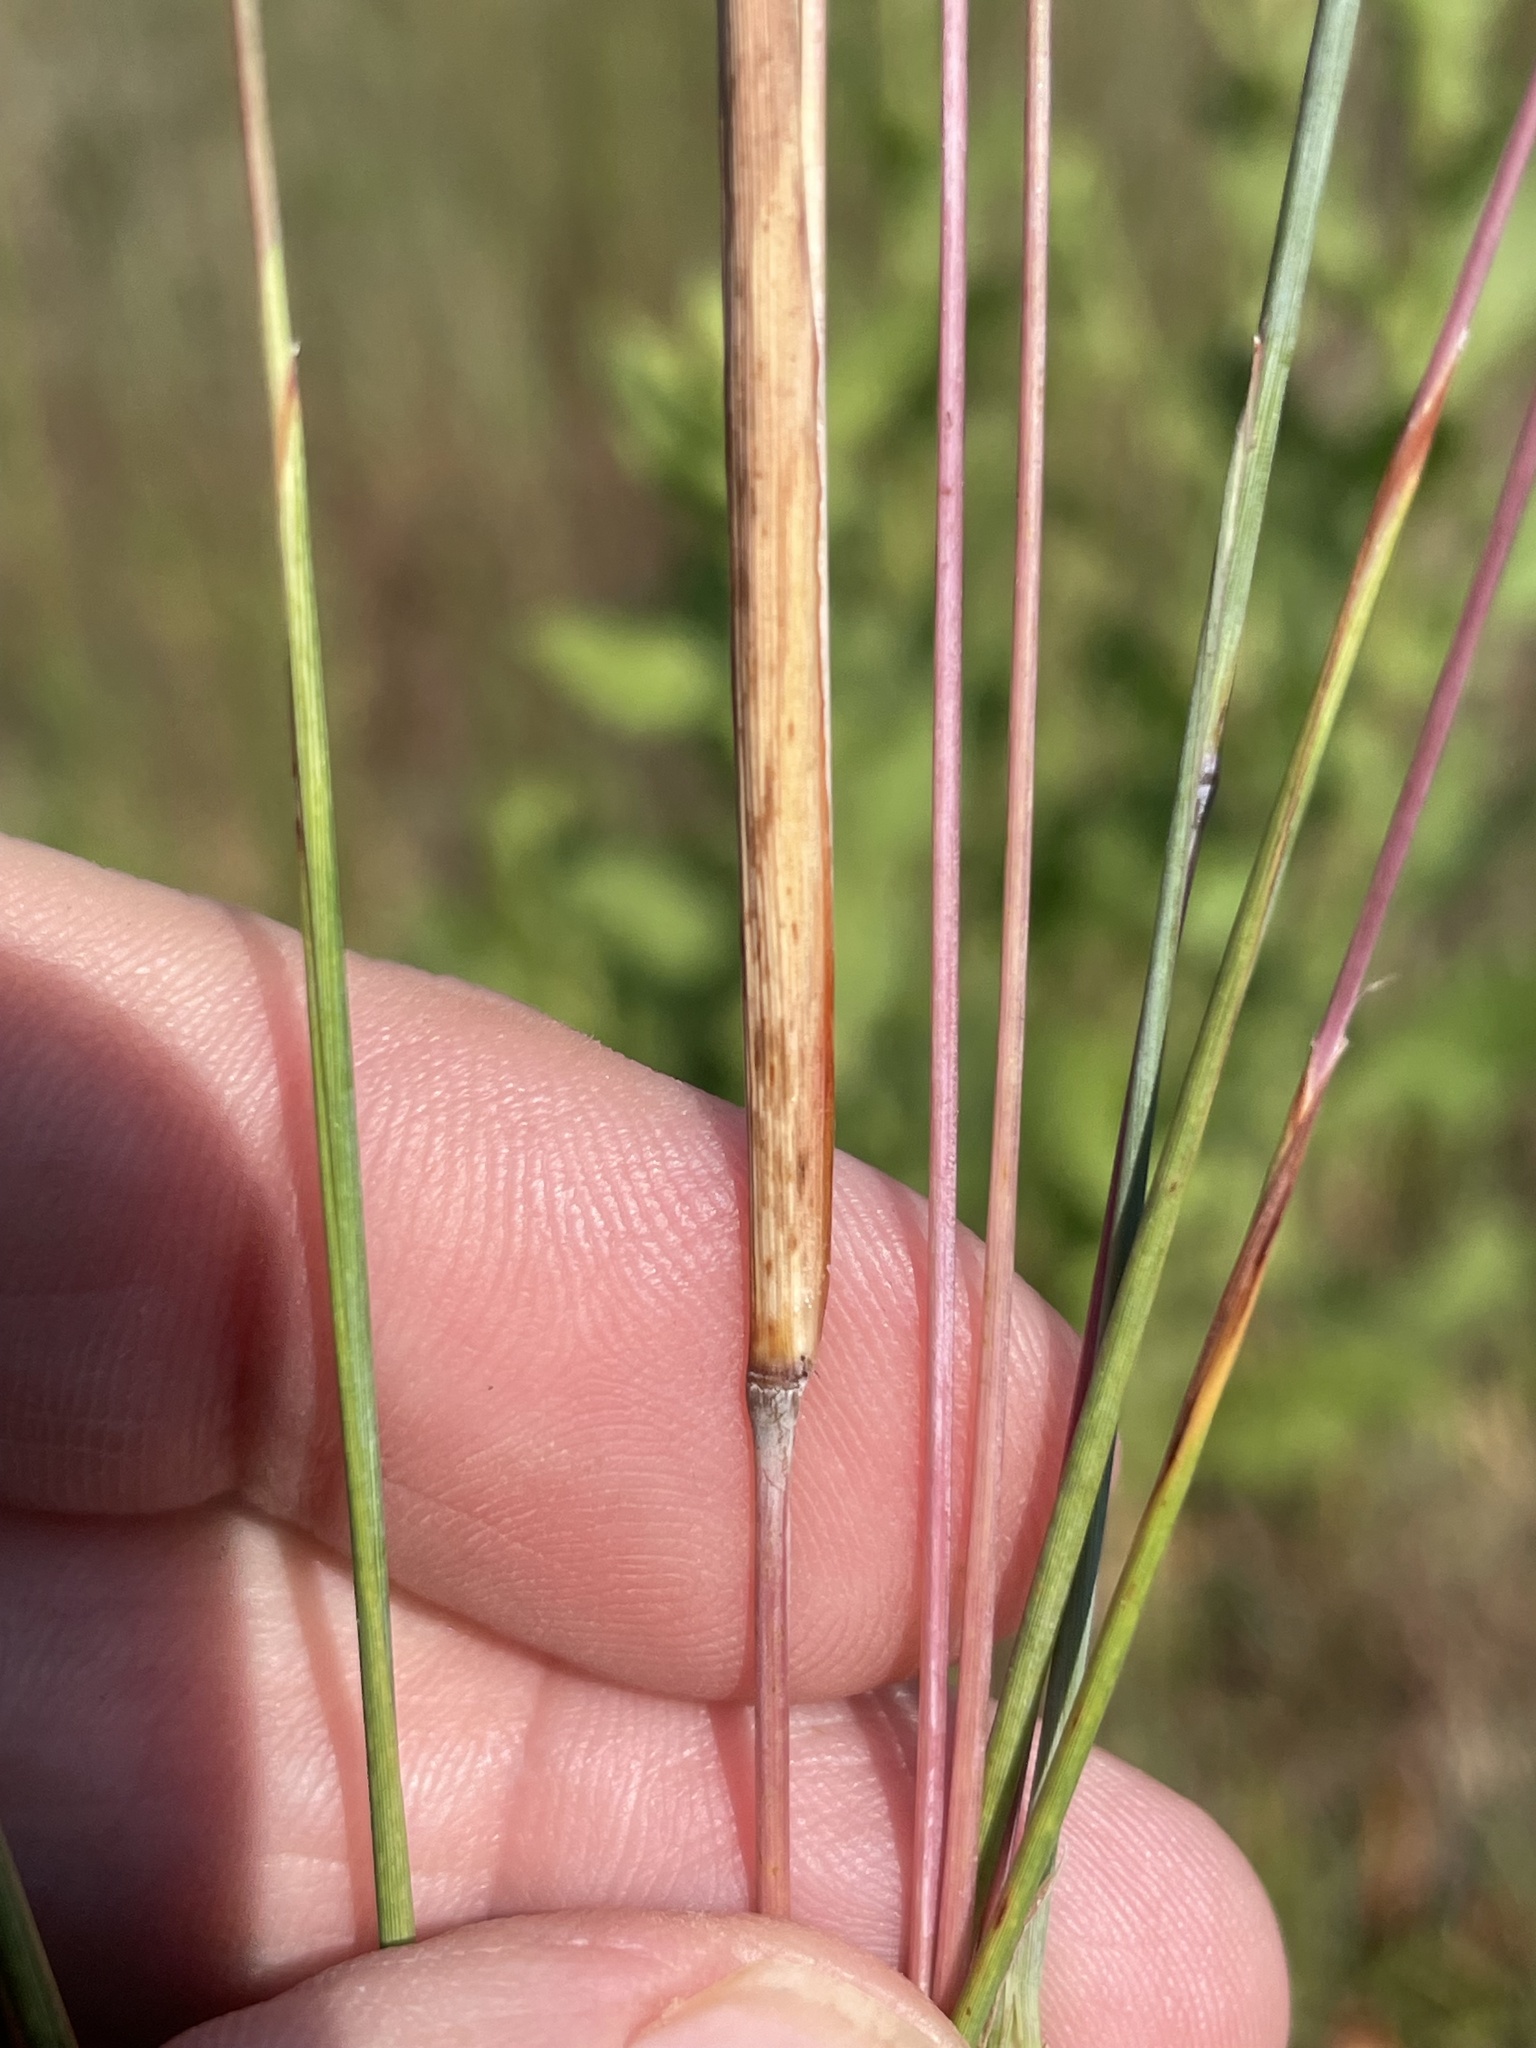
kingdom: Plantae
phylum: Tracheophyta
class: Liliopsida
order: Poales
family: Poaceae
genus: Andropogon
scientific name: Andropogon ternarius
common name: Split bluestem
